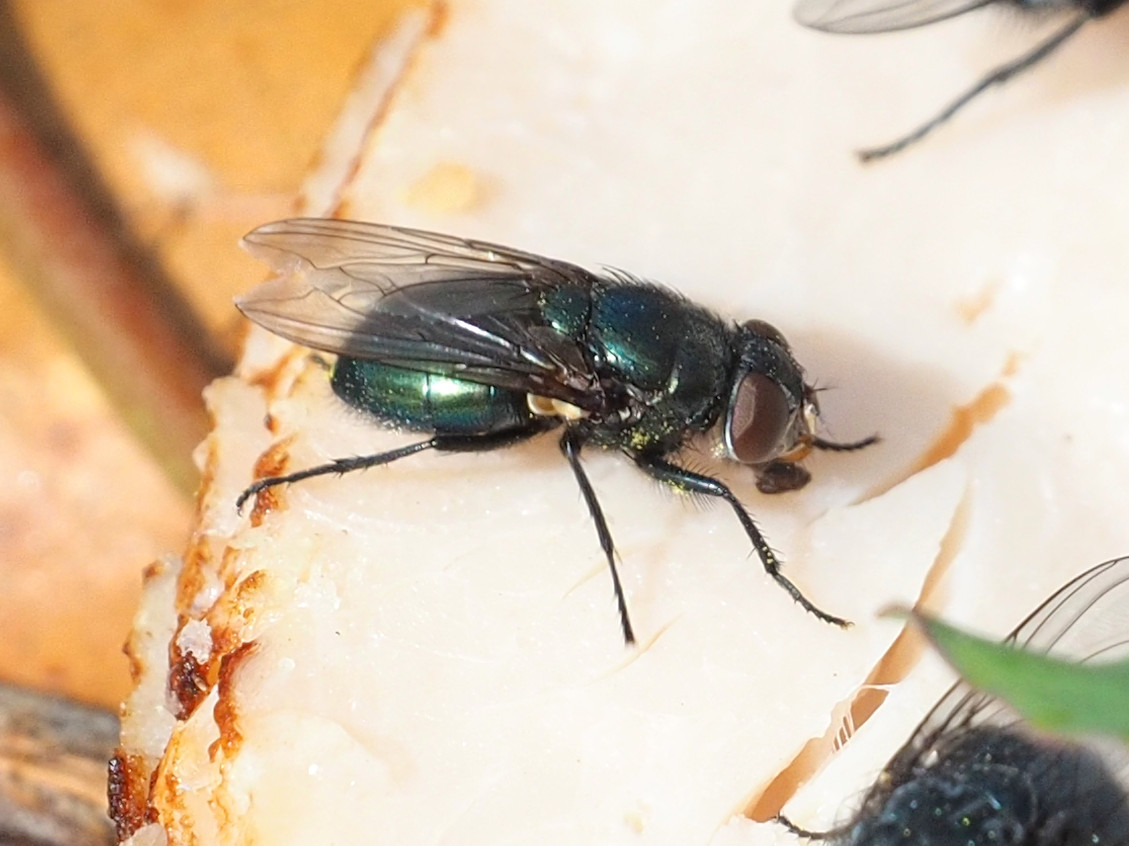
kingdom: Animalia
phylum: Arthropoda
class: Insecta
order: Diptera
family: Calliphoridae
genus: Phormia
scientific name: Phormia regina
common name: Black blow fly
